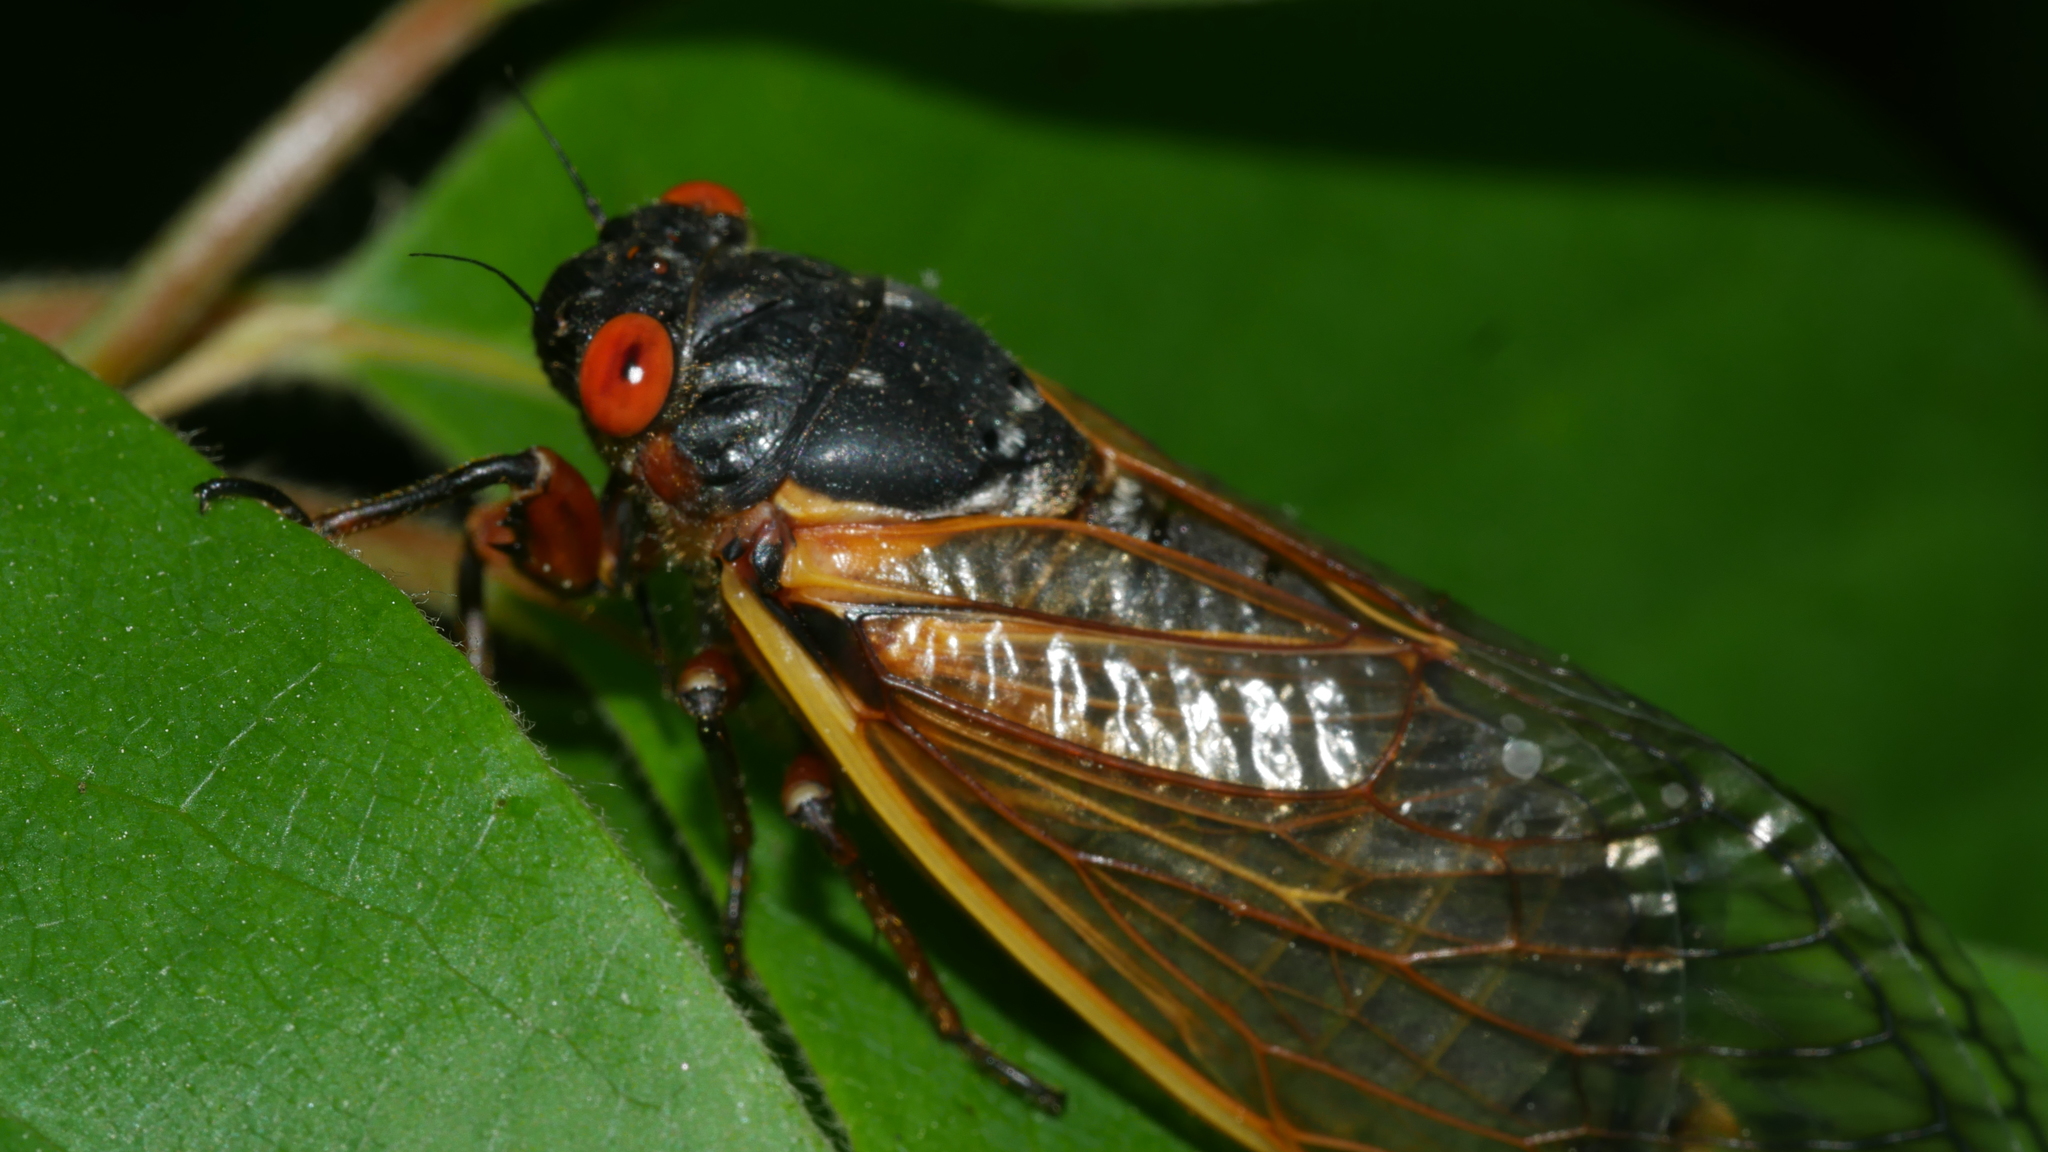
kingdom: Animalia
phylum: Arthropoda
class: Insecta
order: Hemiptera
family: Cicadidae
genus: Magicicada
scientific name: Magicicada septendecim
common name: Periodical cicada
